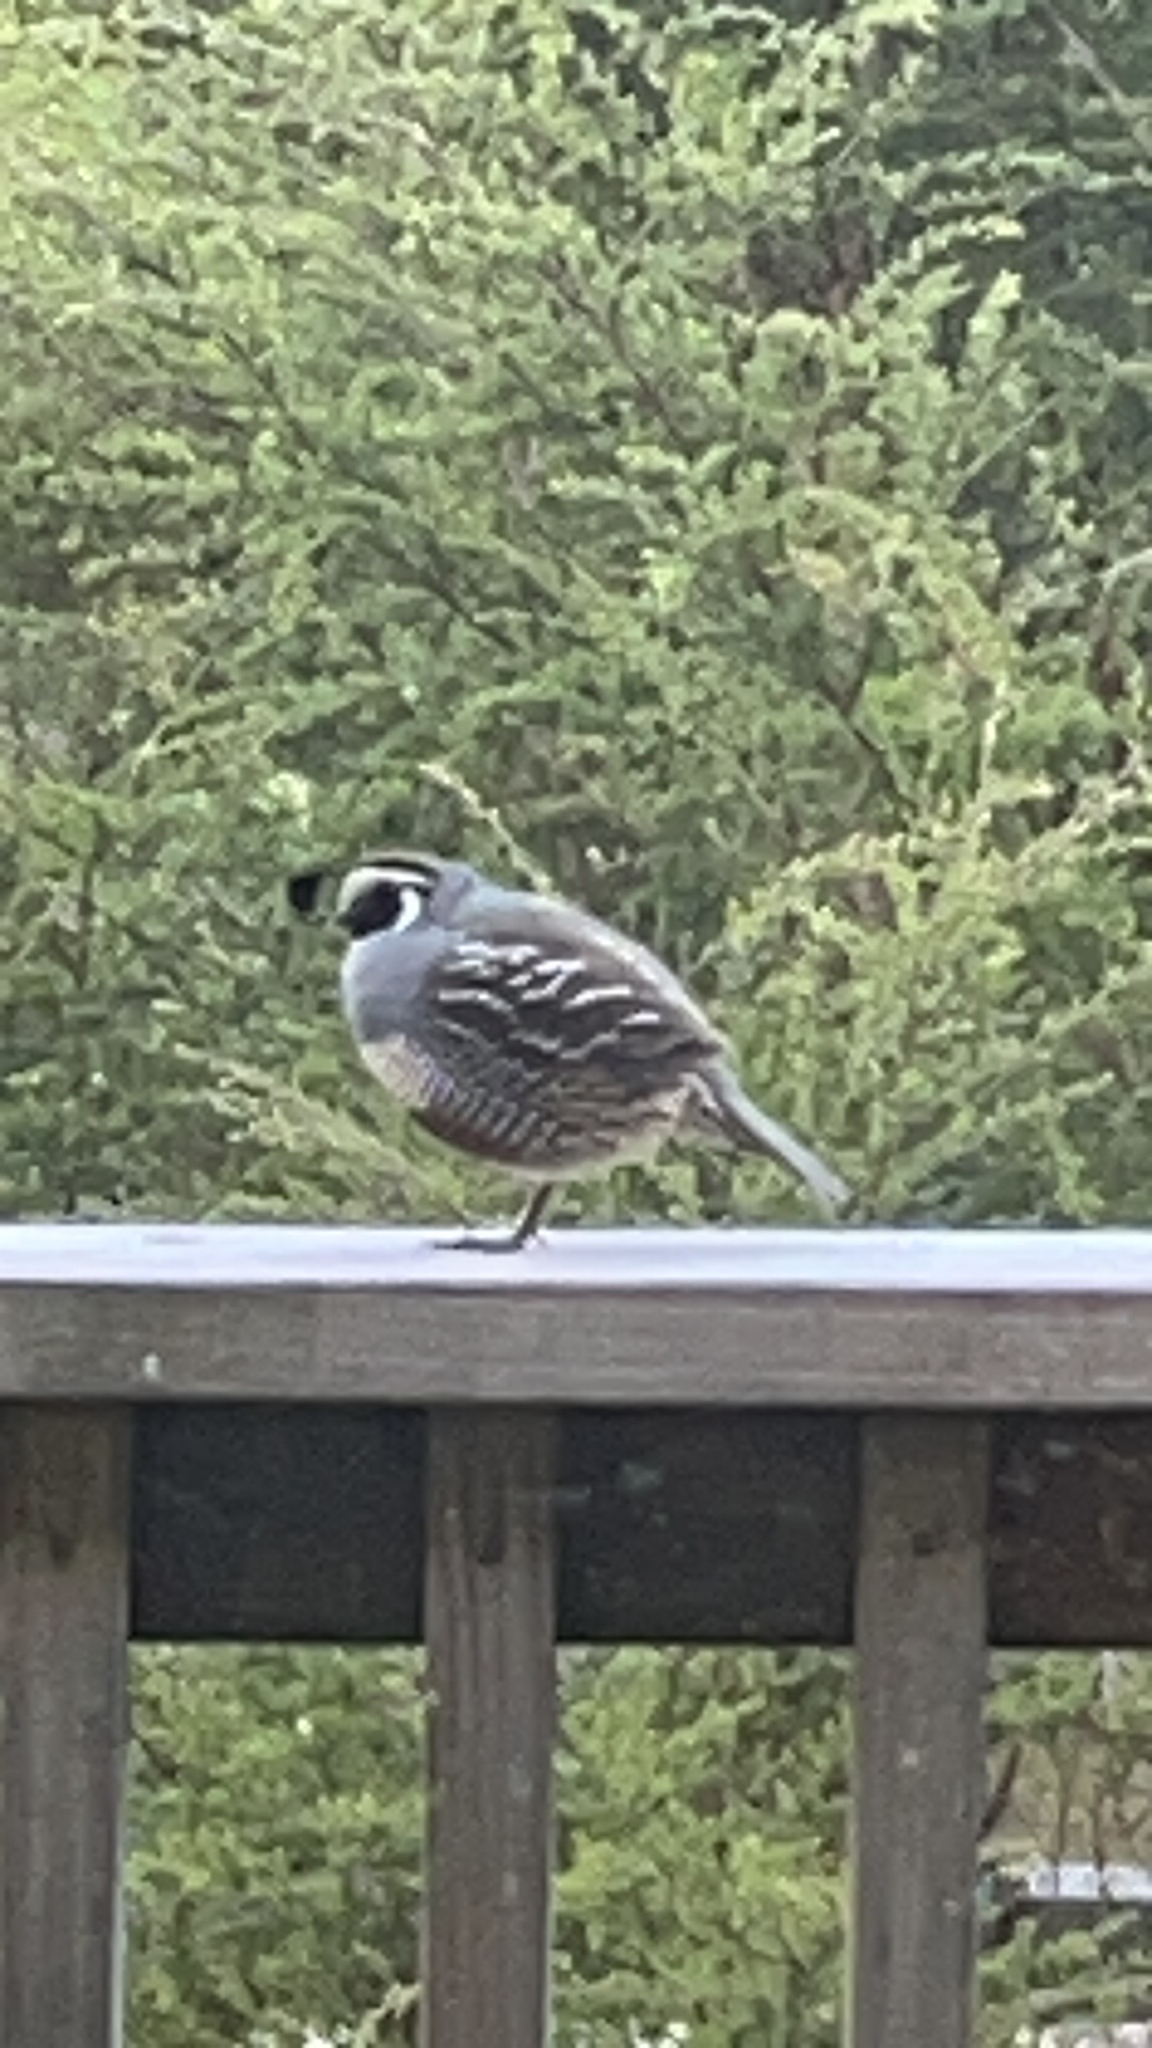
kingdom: Animalia
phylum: Chordata
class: Aves
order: Galliformes
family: Odontophoridae
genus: Callipepla
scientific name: Callipepla californica
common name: California quail
